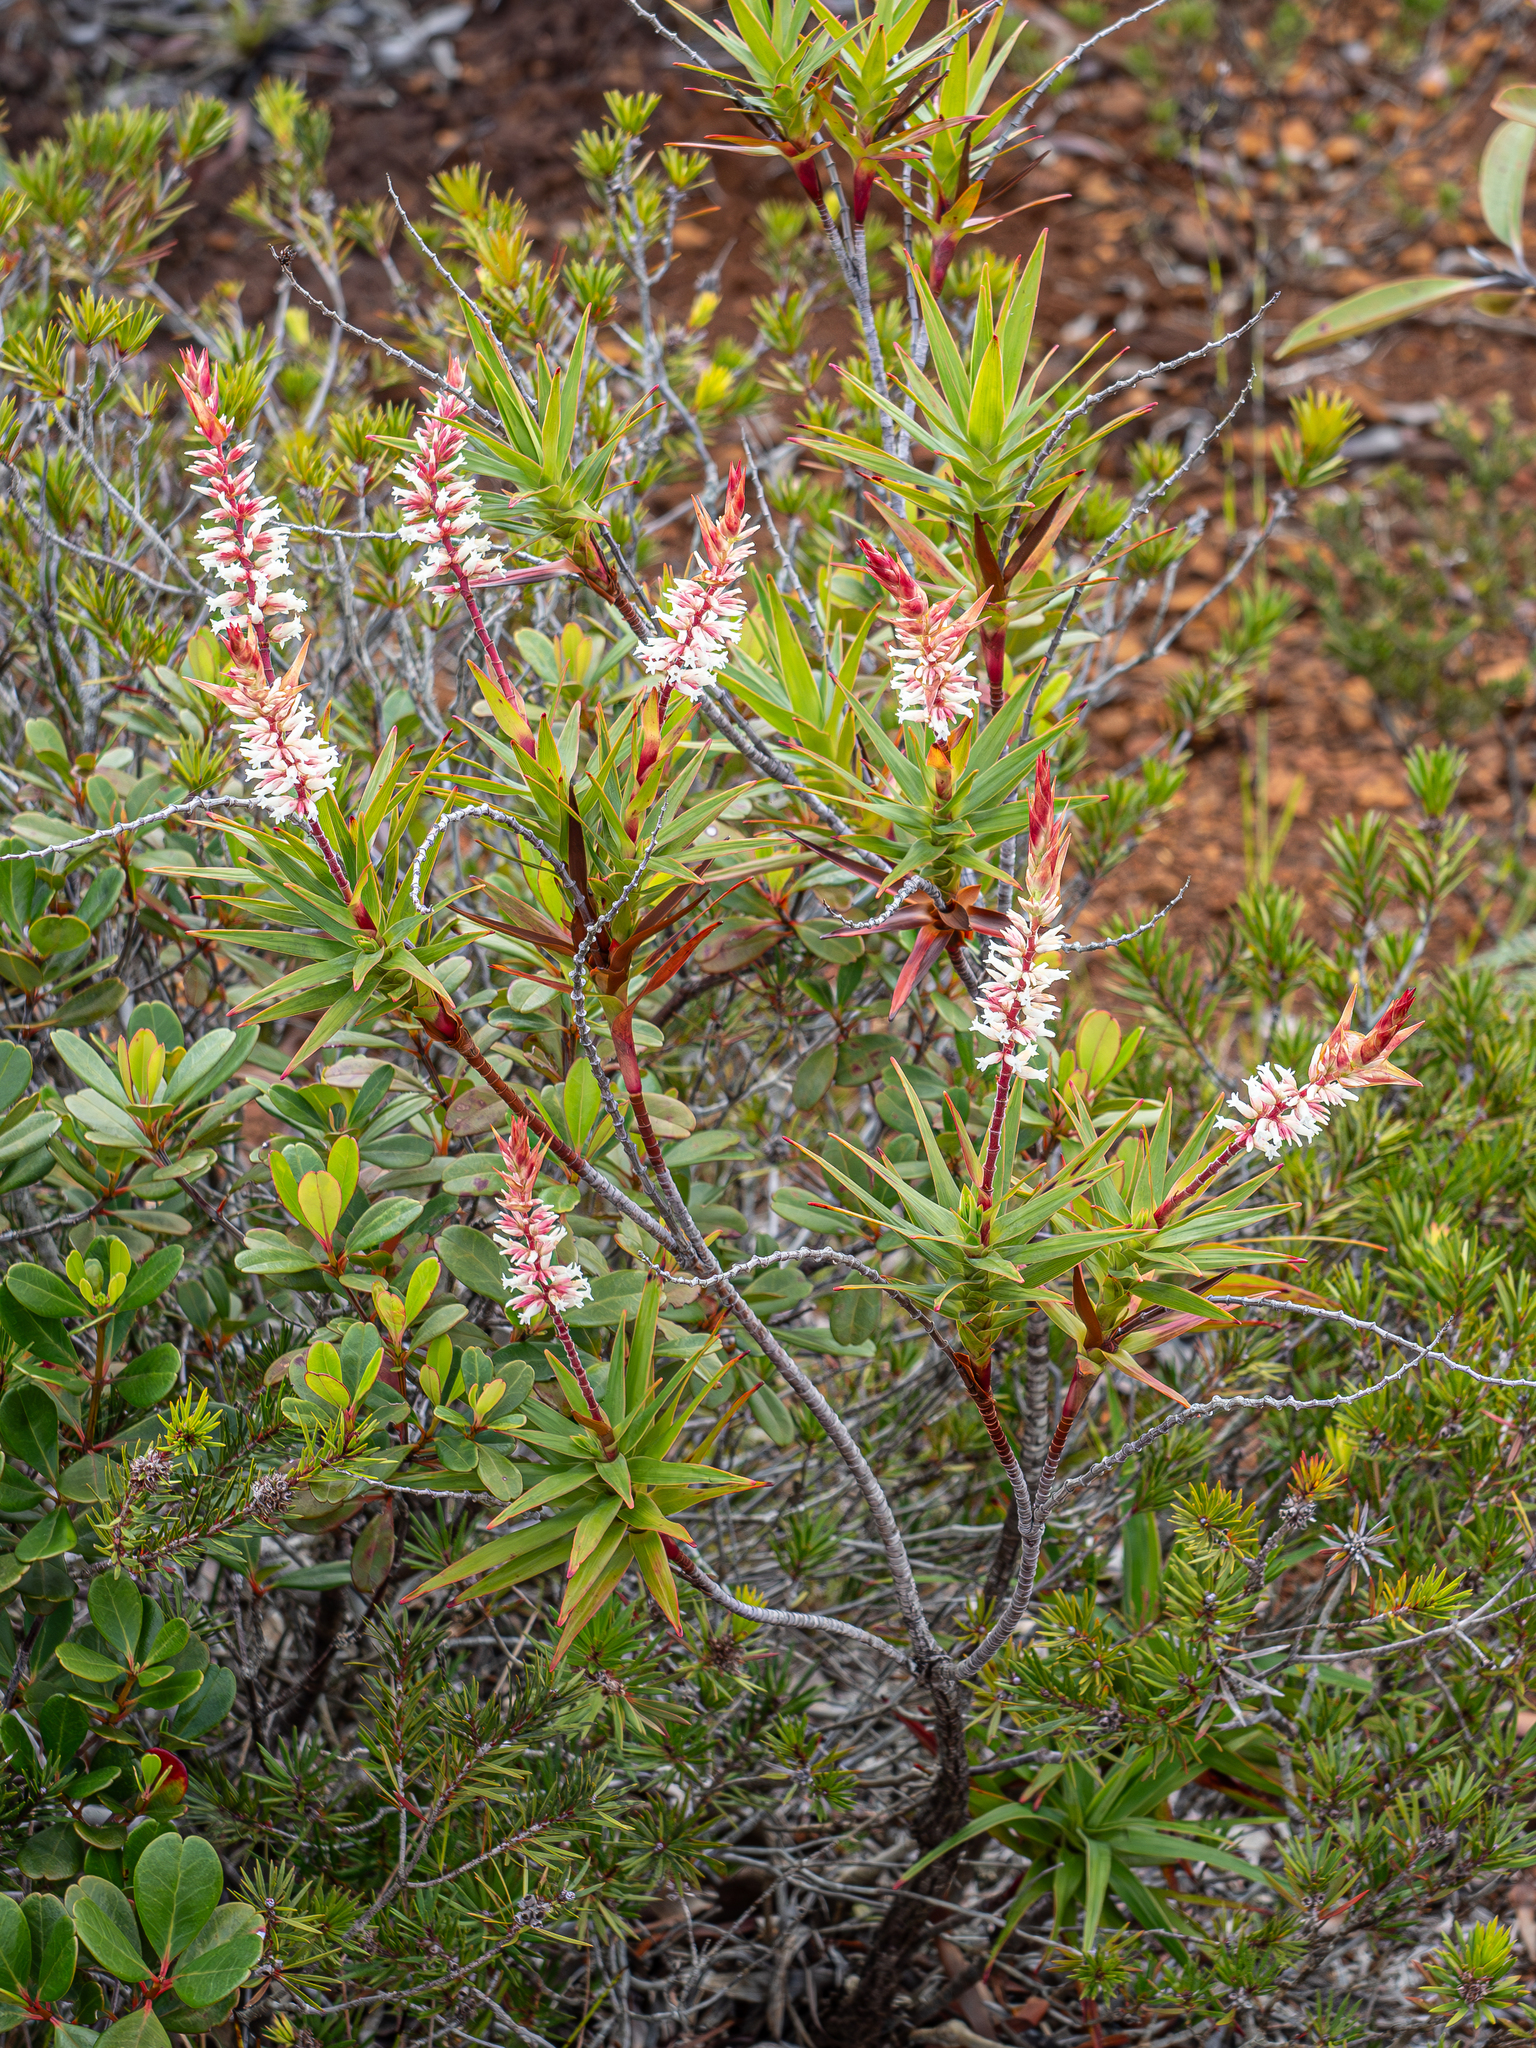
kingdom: Plantae
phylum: Tracheophyta
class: Magnoliopsida
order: Ericales
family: Ericaceae
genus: Dracophyllum
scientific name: Dracophyllum ramosum
